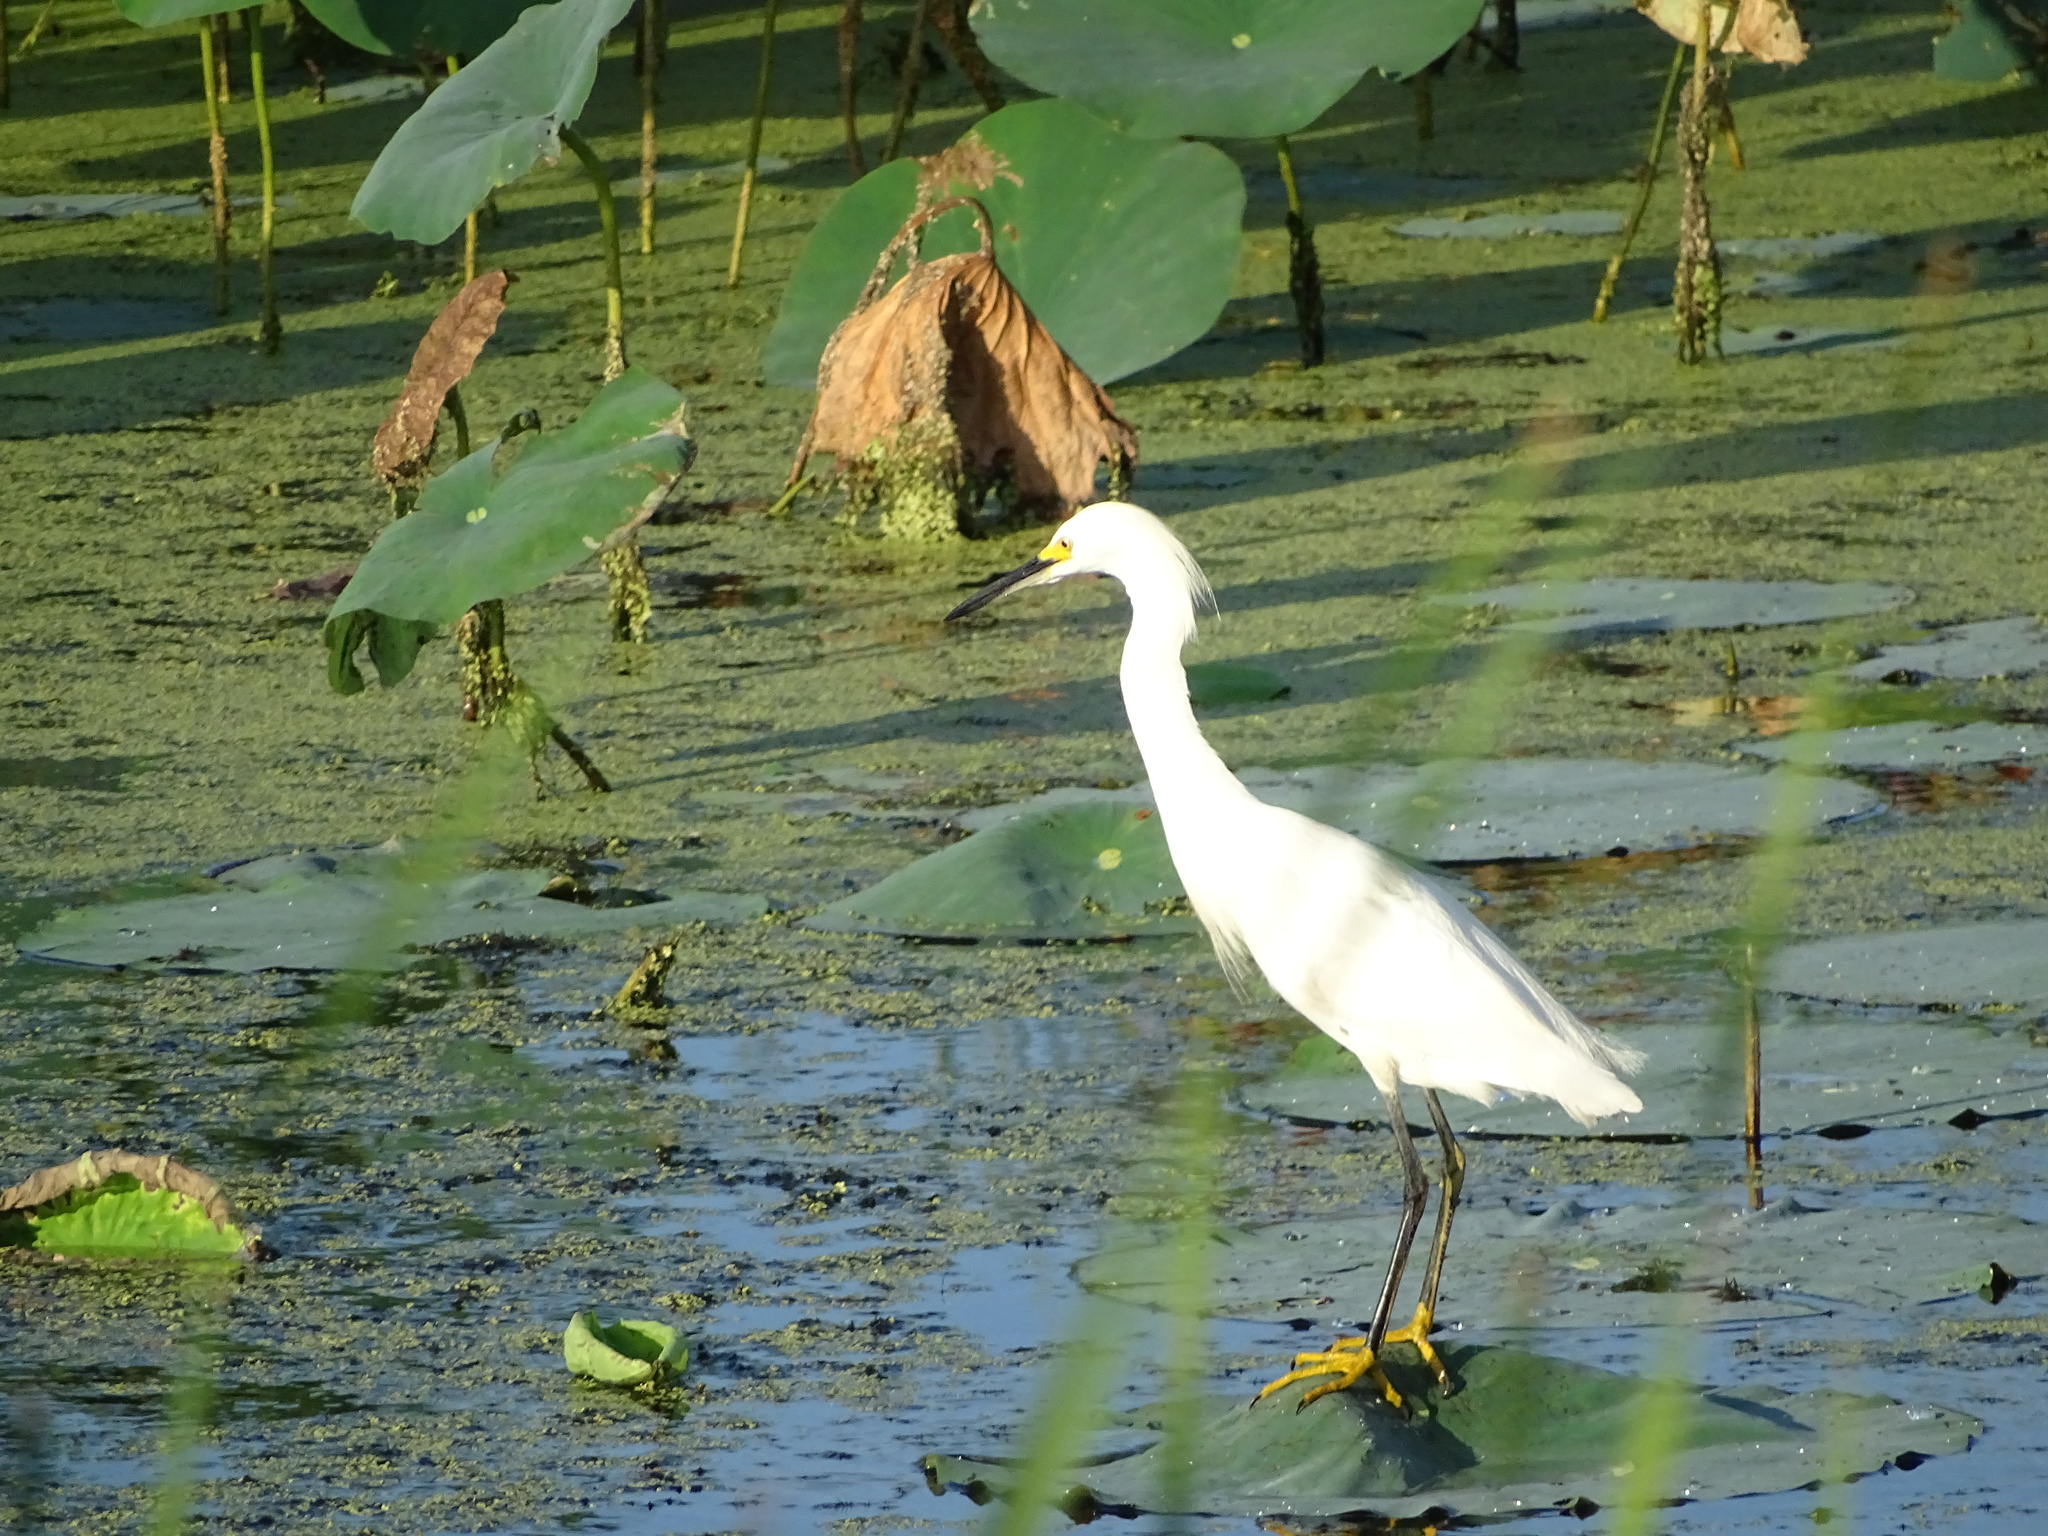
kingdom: Animalia
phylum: Chordata
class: Aves
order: Pelecaniformes
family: Ardeidae
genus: Egretta
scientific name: Egretta thula
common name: Snowy egret
